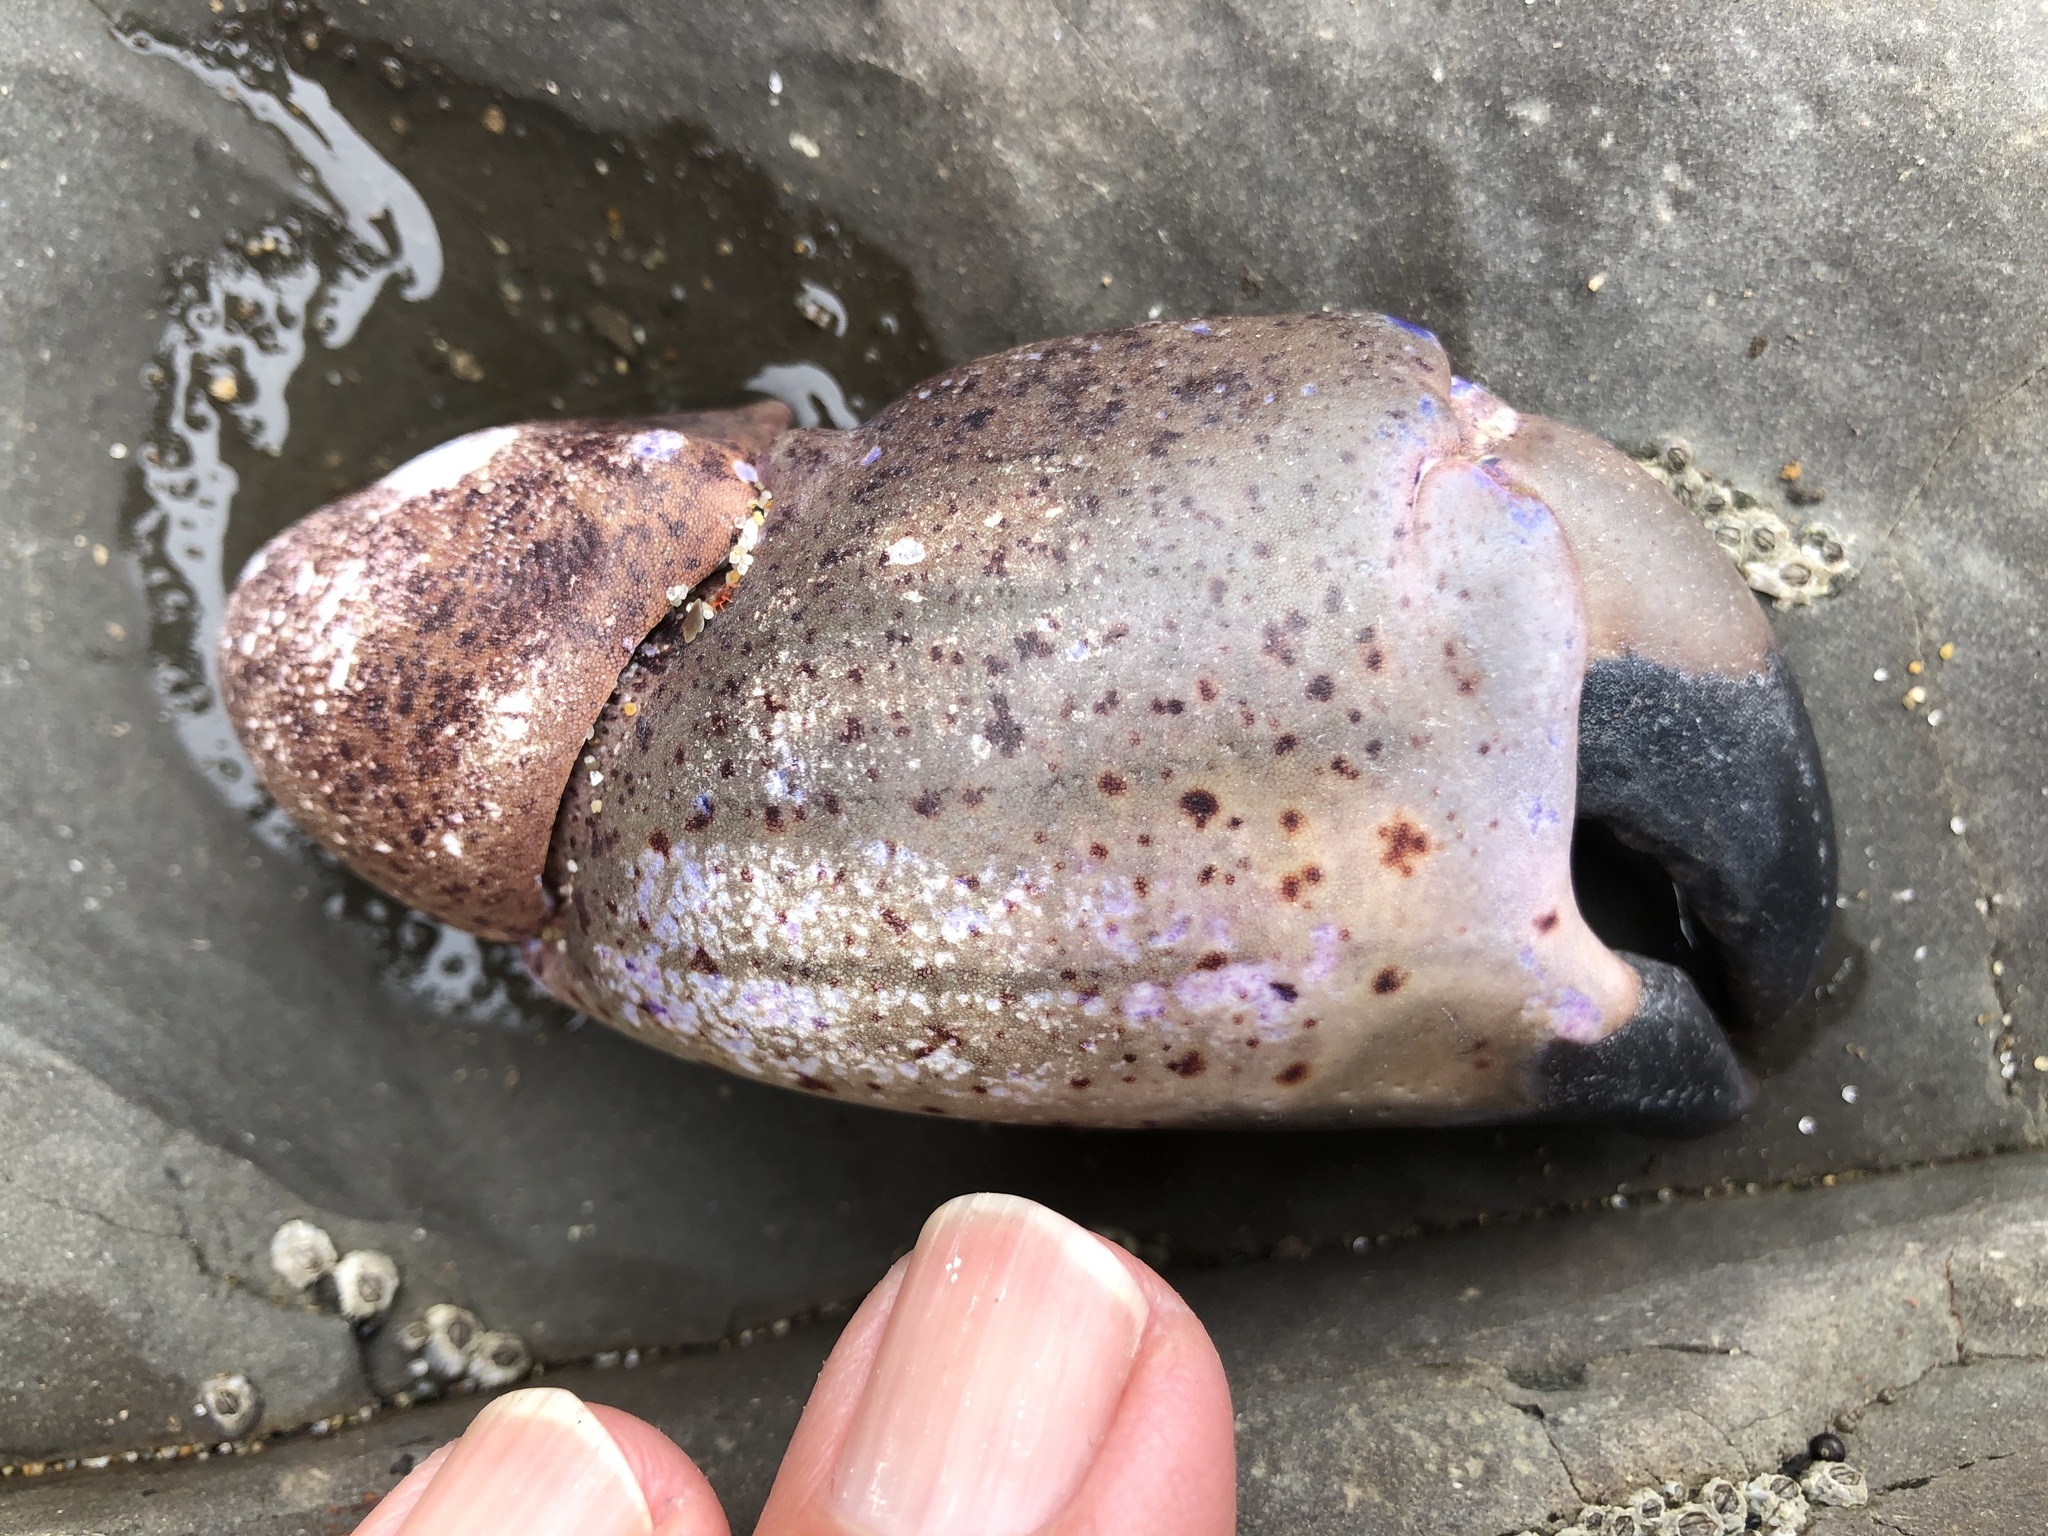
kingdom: Animalia
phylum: Arthropoda
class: Malacostraca
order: Decapoda
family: Cancridae
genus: Romaleon
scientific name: Romaleon antennarium
